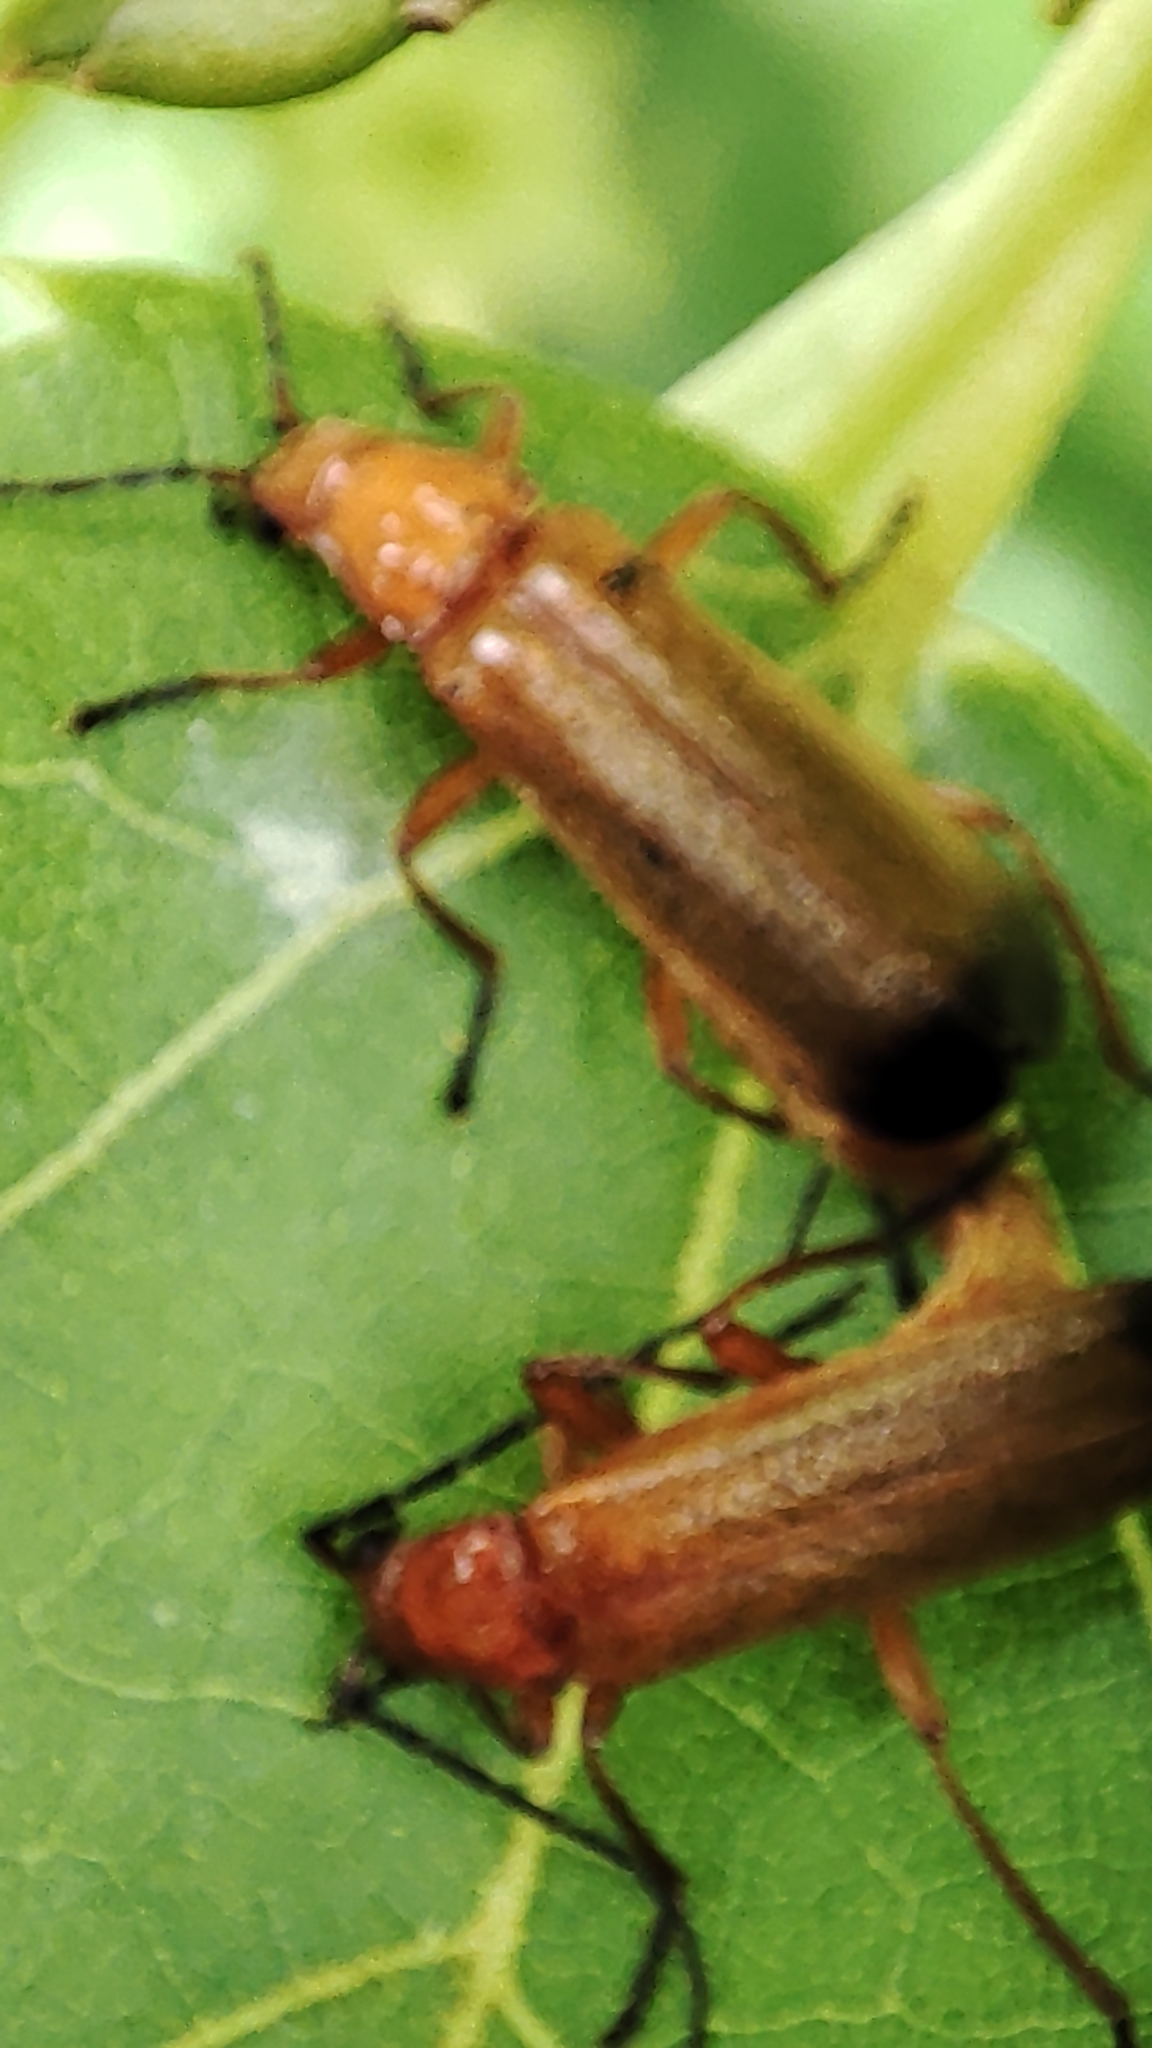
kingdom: Animalia
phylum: Arthropoda
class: Insecta
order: Coleoptera
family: Cantharidae
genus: Rhagonycha
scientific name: Rhagonycha fulva
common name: Common red soldier beetle
